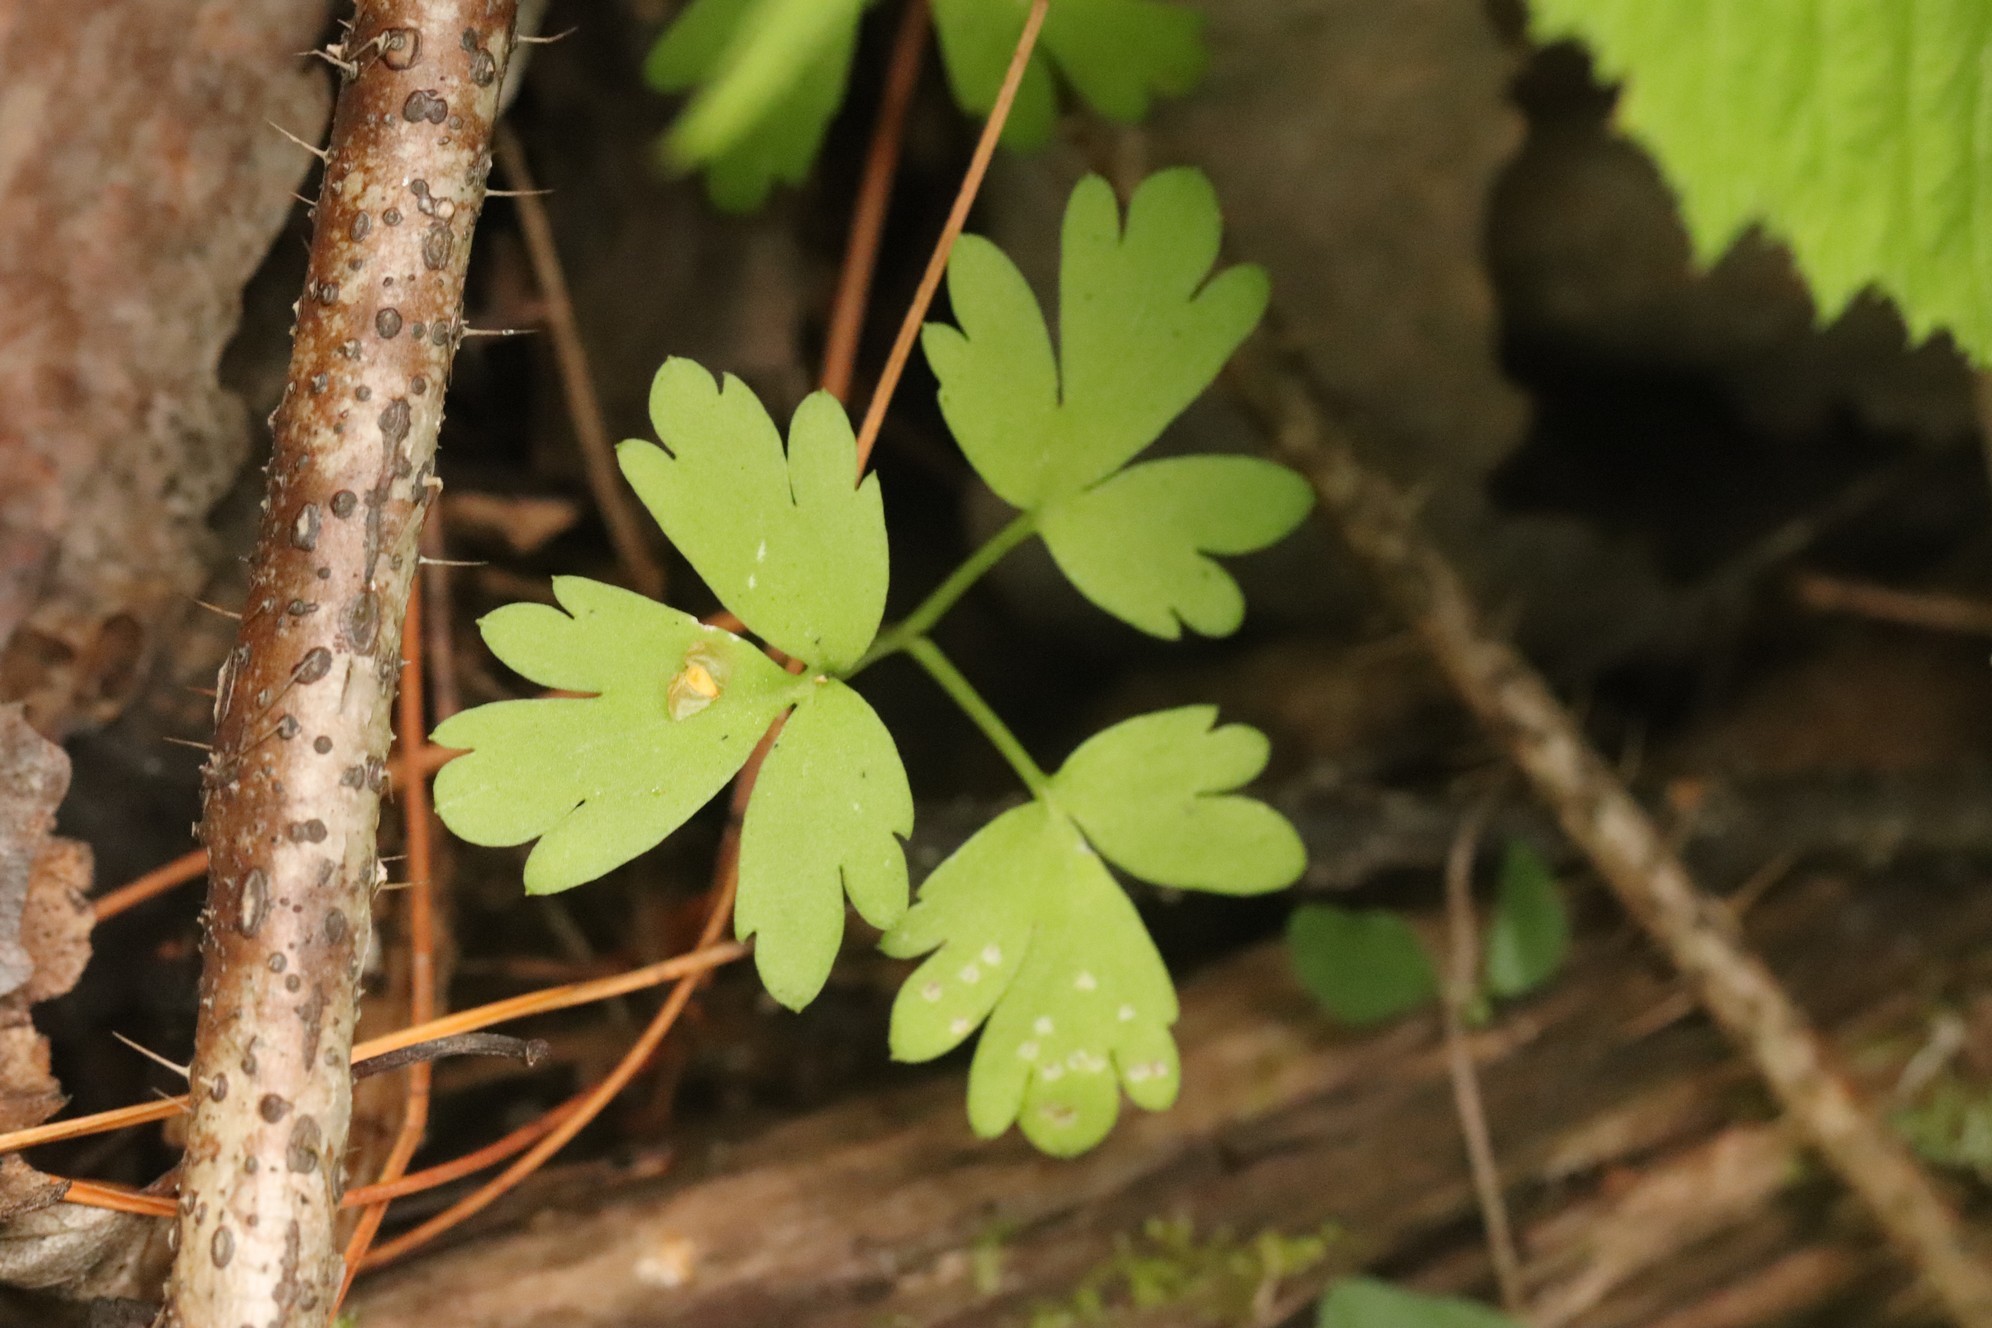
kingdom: Plantae
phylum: Tracheophyta
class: Magnoliopsida
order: Dipsacales
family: Viburnaceae
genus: Adoxa
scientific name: Adoxa moschatellina
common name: Moschatel
